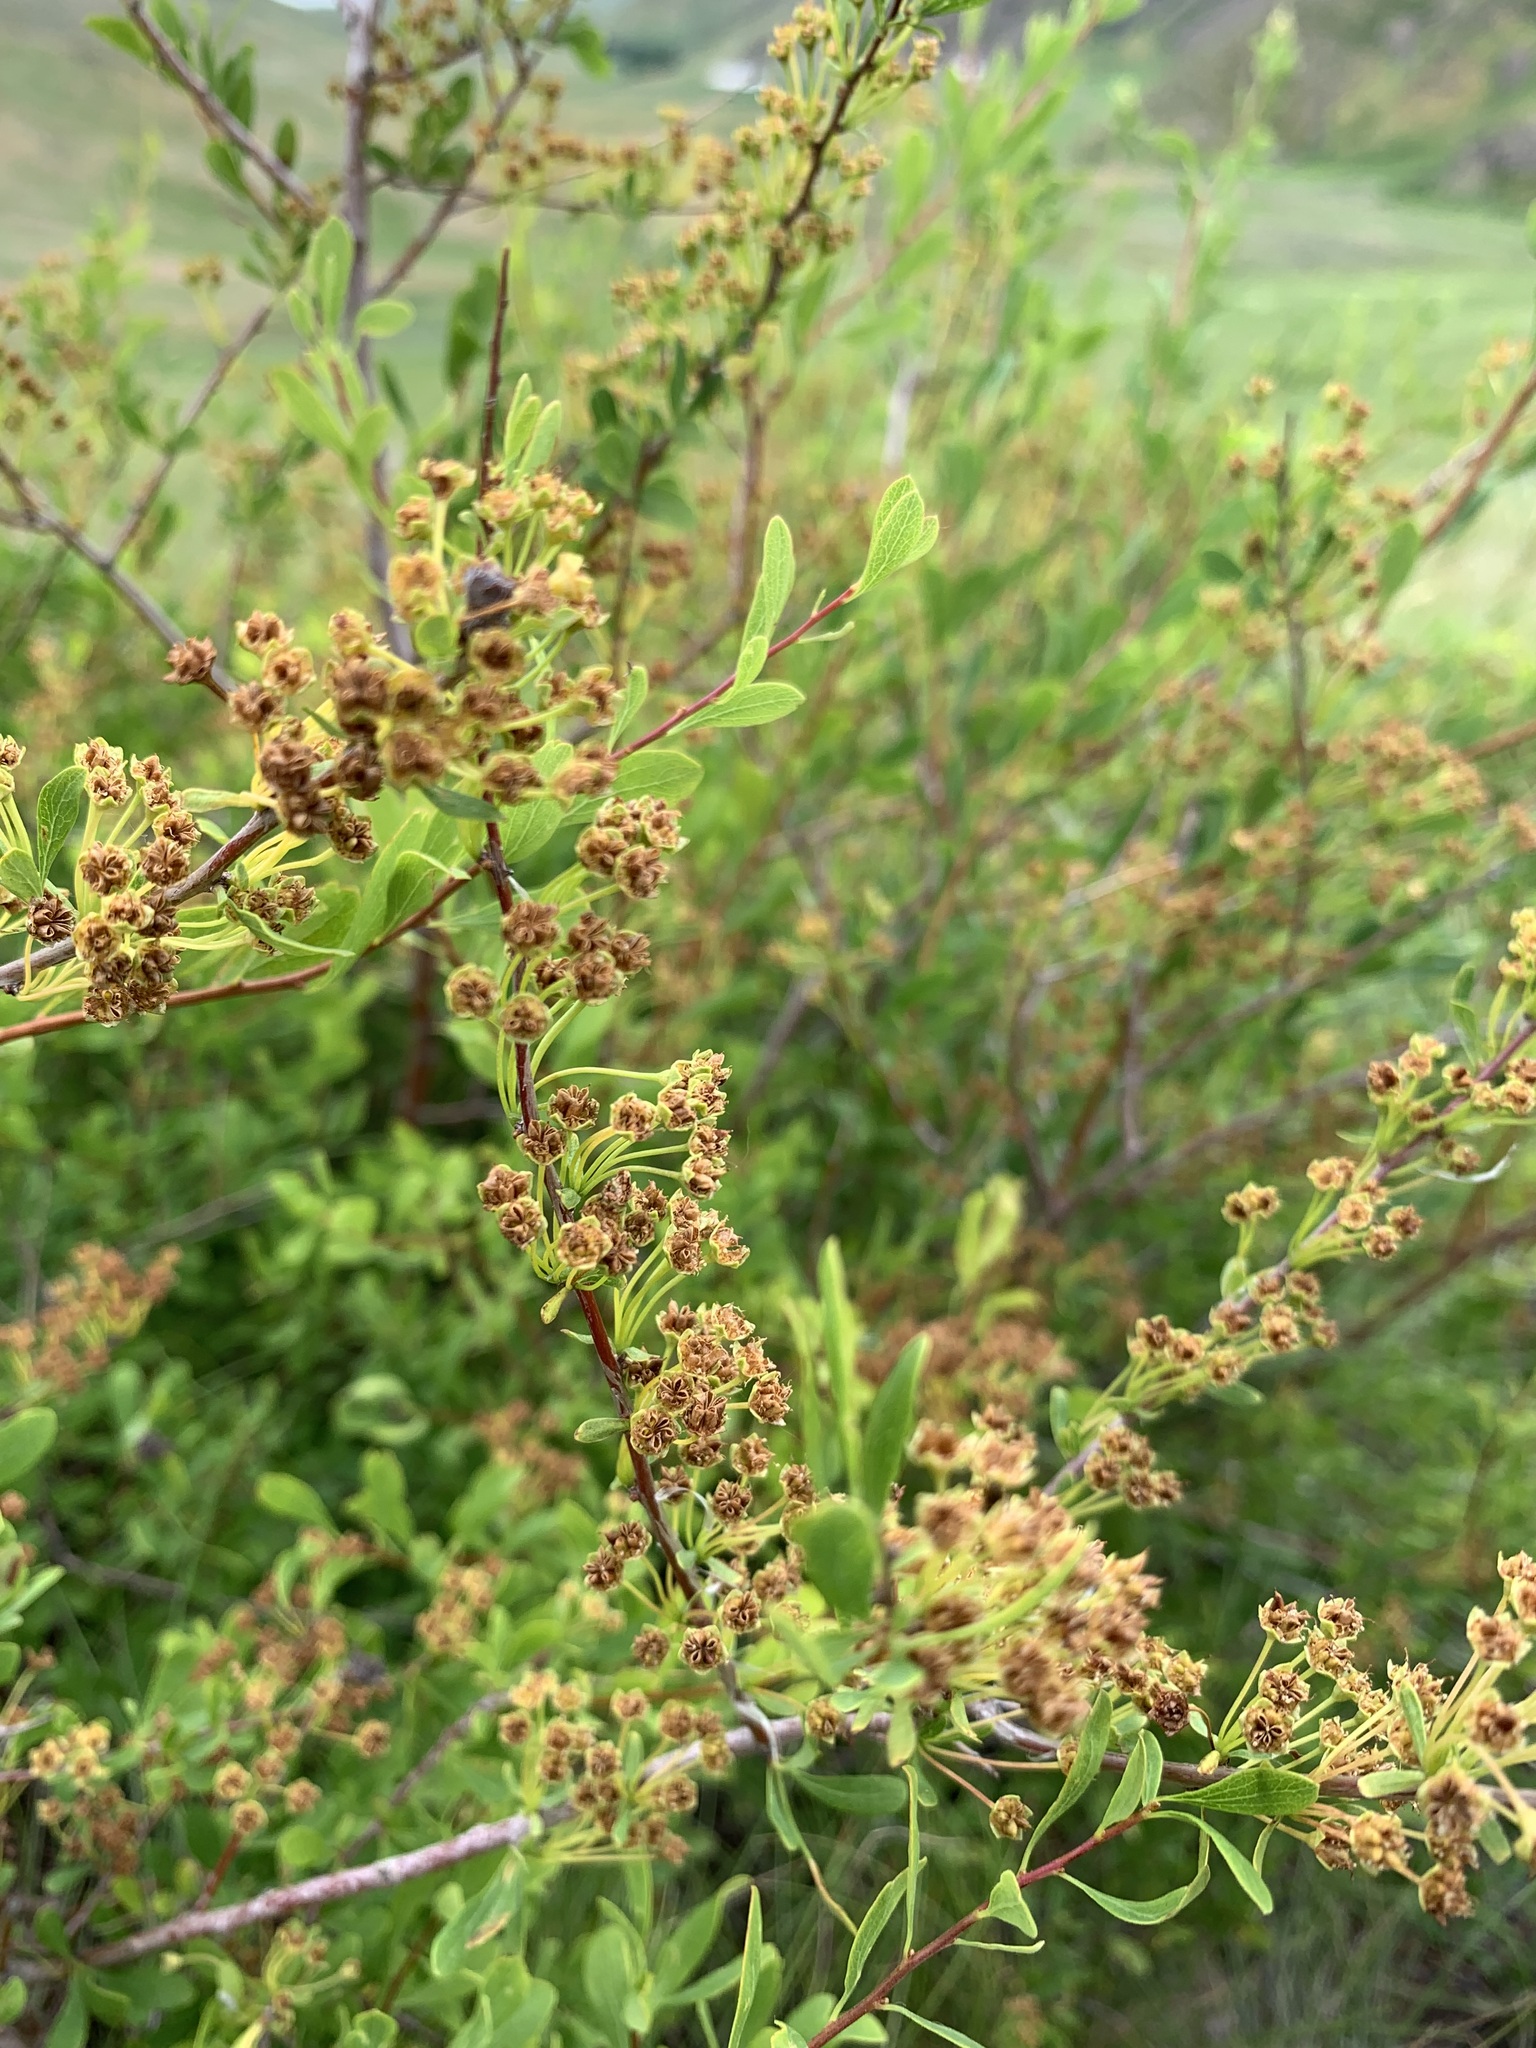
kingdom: Plantae
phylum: Tracheophyta
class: Magnoliopsida
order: Rosales
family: Rosaceae
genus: Spiraea
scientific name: Spiraea hypericifolia
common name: Iberian spirea
